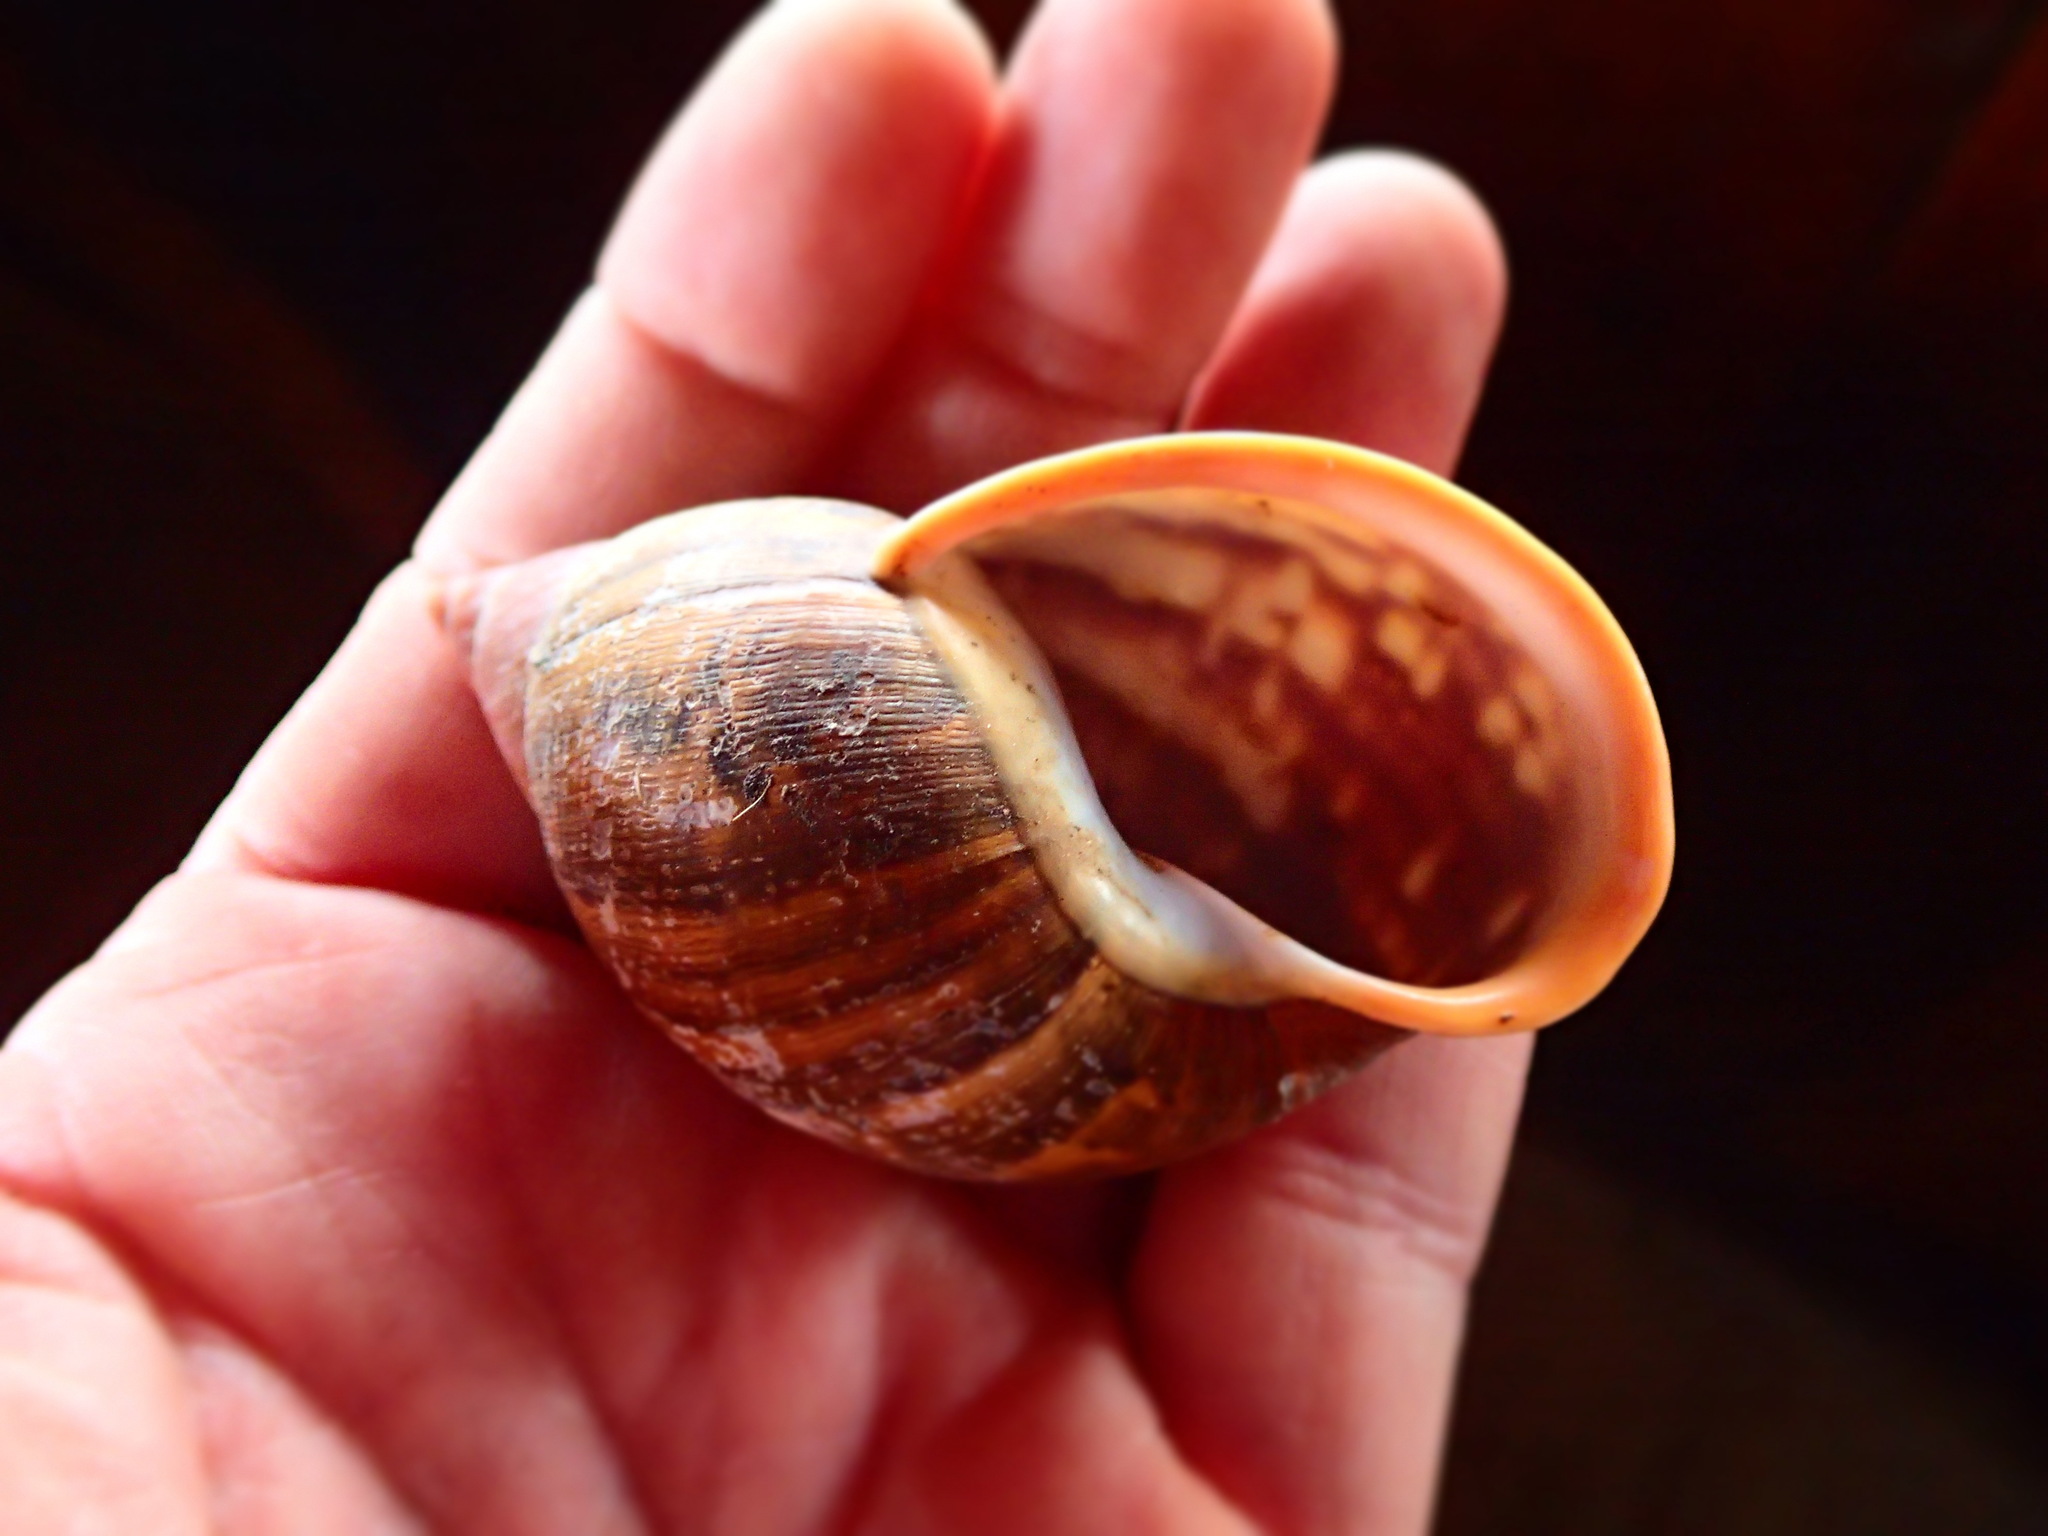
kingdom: Animalia
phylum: Mollusca
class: Gastropoda
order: Stylommatophora
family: Orthalicidae
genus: Porphyrobaphe
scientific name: Porphyrobaphe irrorata
